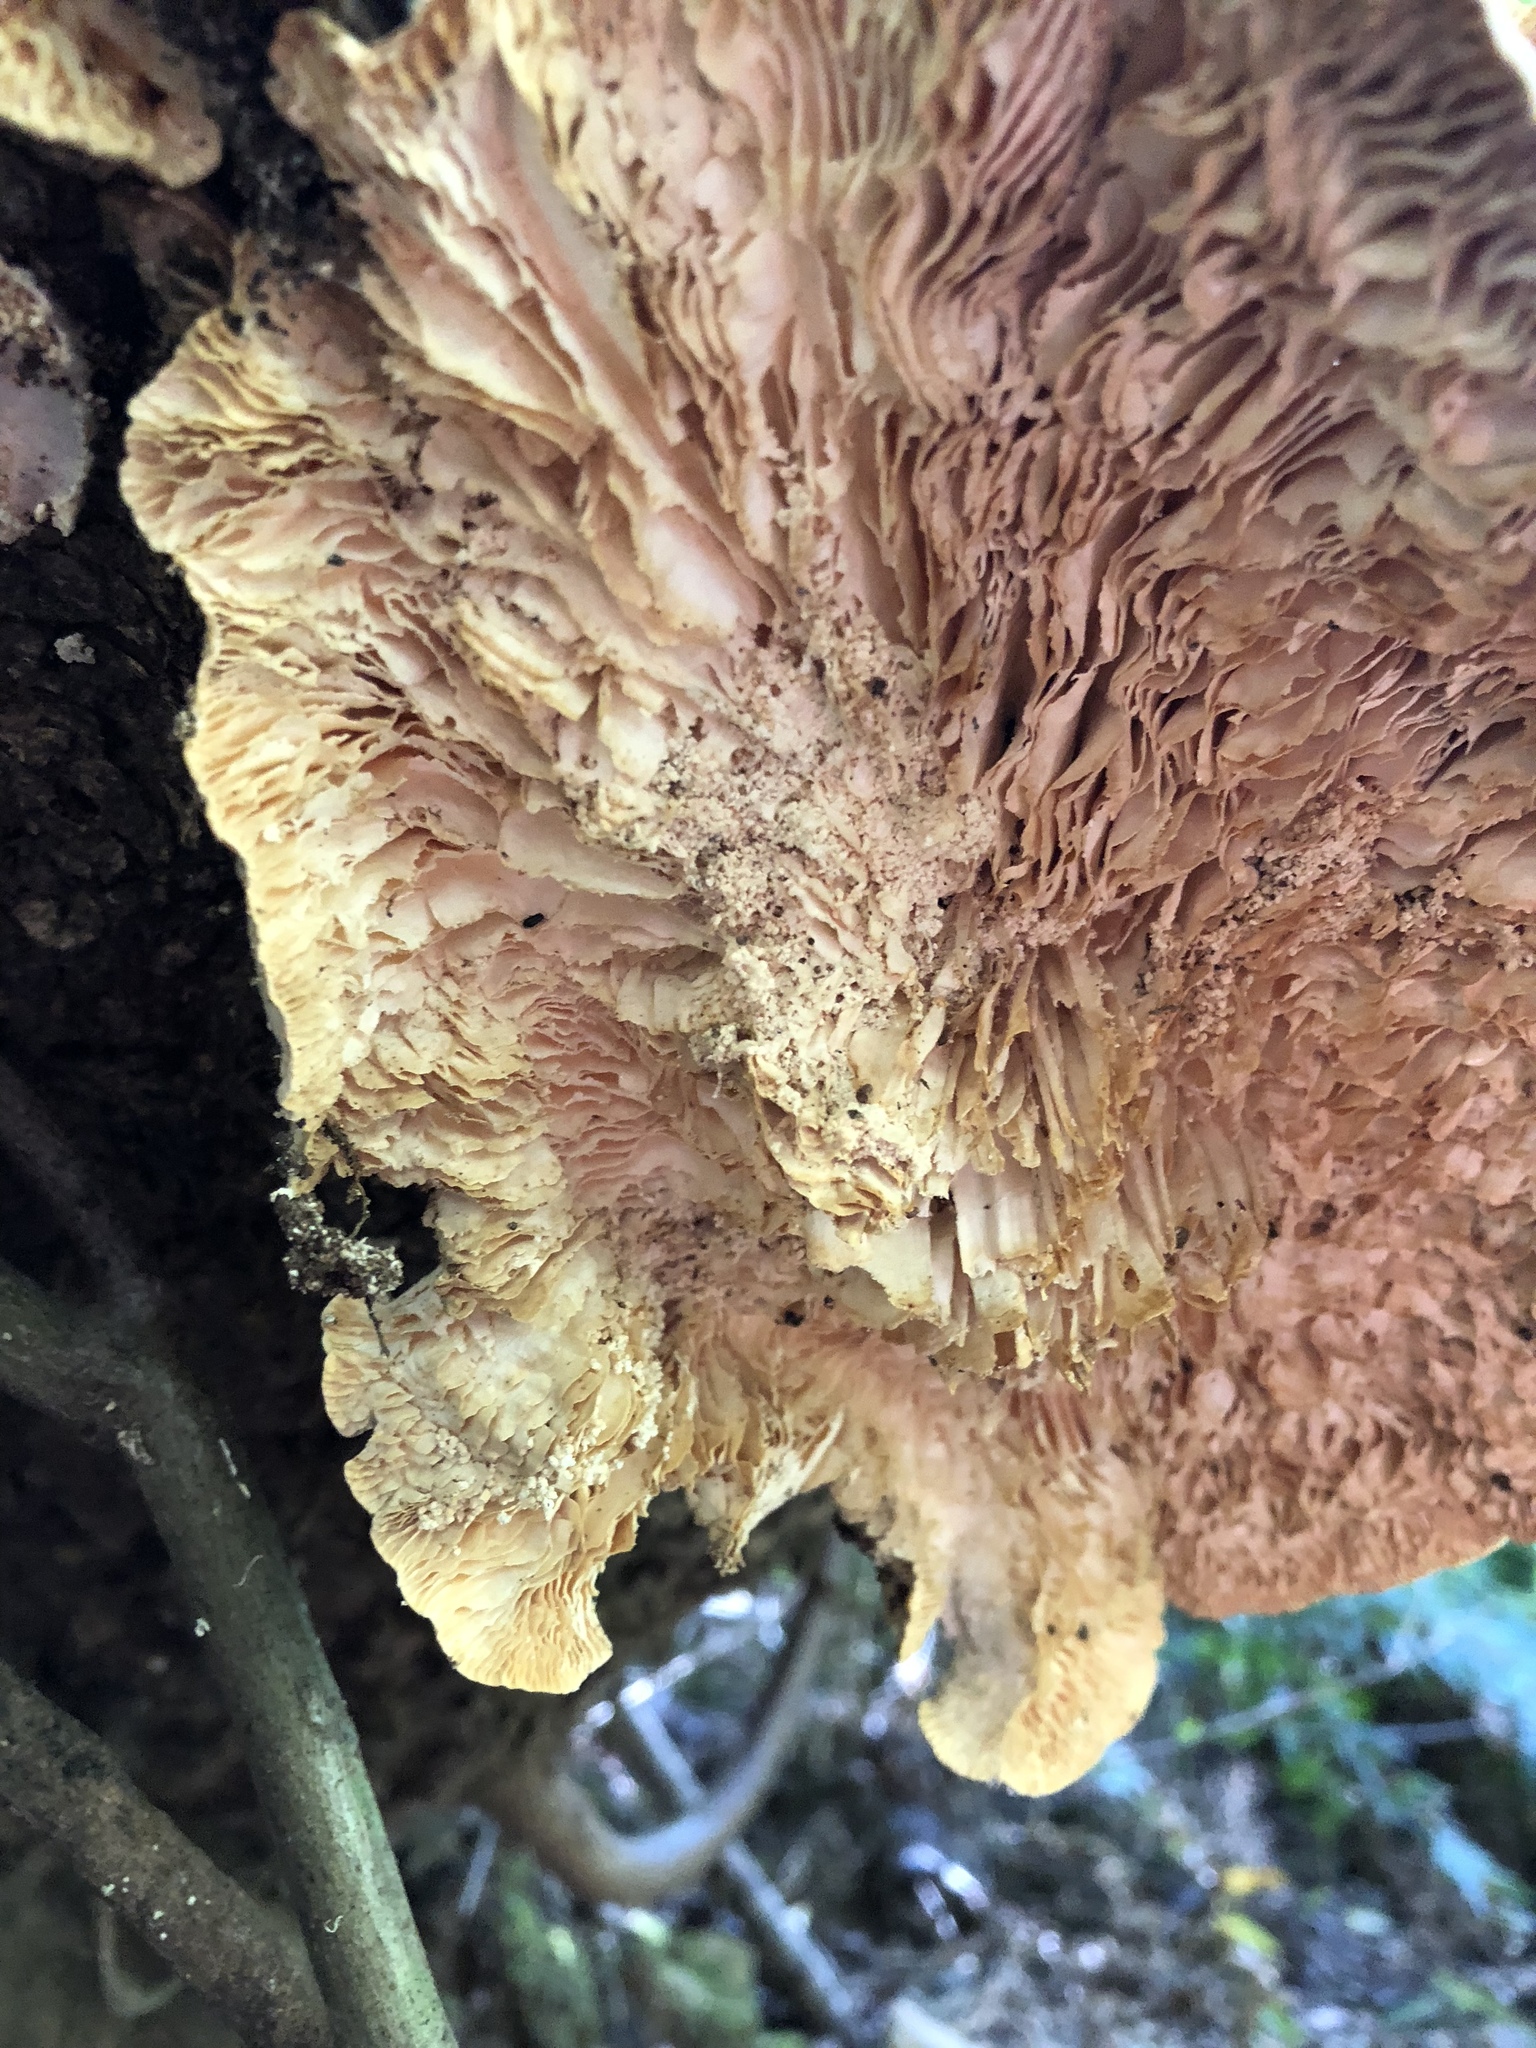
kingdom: Fungi
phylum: Basidiomycota
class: Agaricomycetes
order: Polyporales
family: Polyporaceae
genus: Lenzites
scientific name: Lenzites betulinus
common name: Birch mazegill
